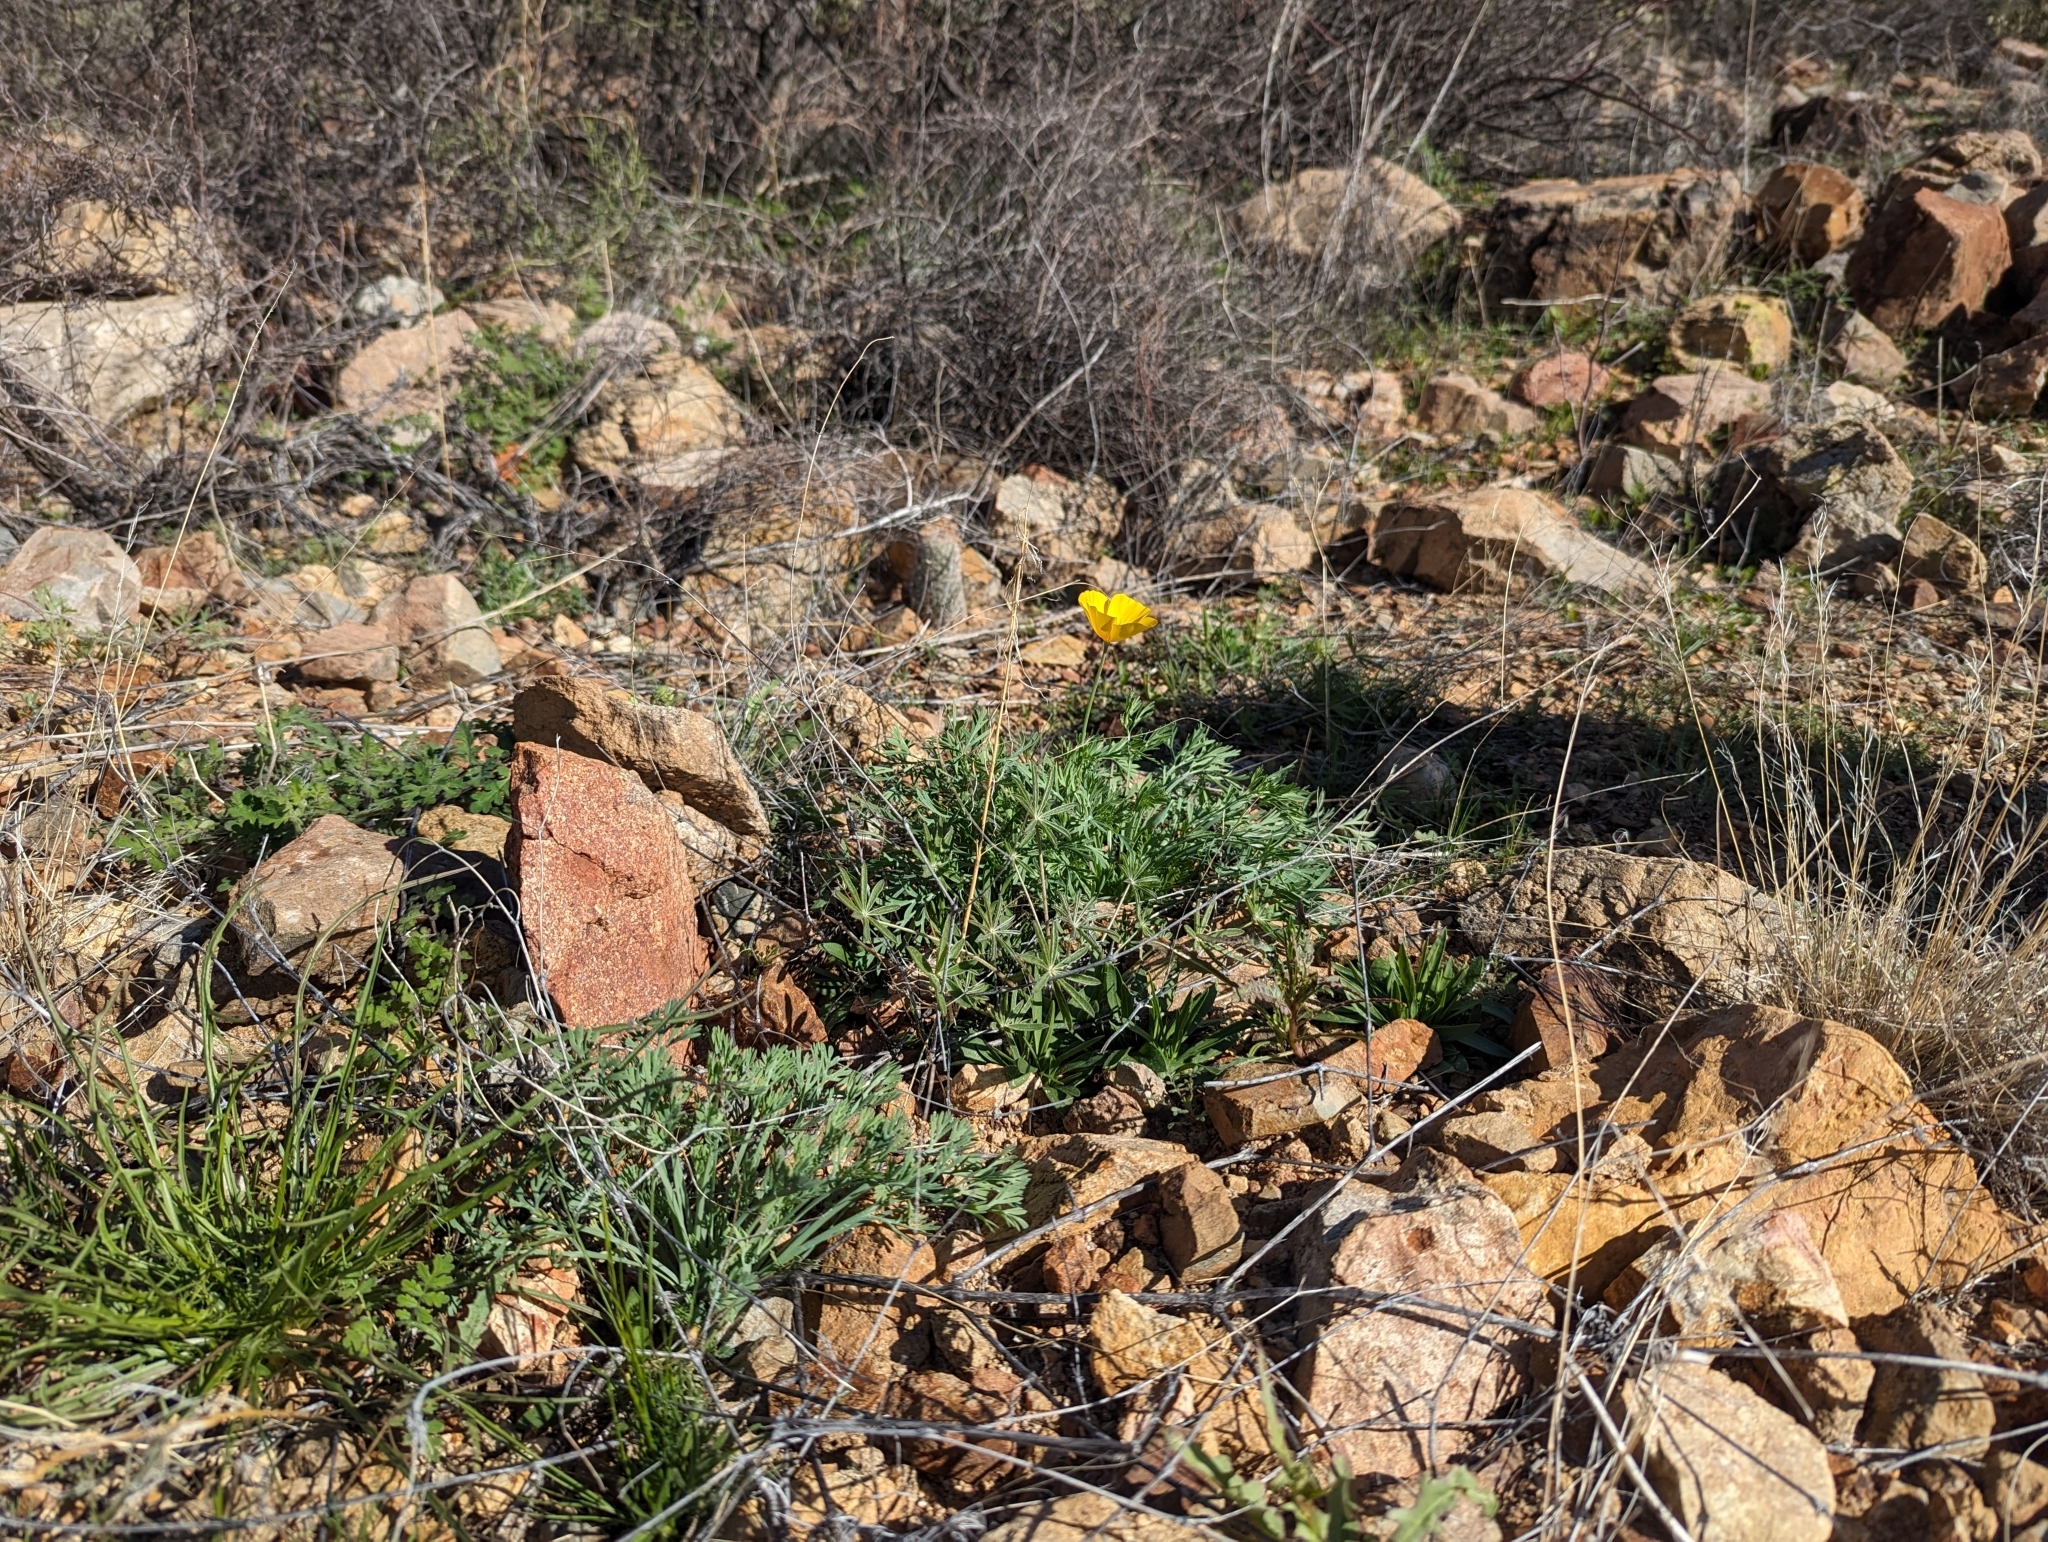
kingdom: Plantae
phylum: Tracheophyta
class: Magnoliopsida
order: Ranunculales
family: Papaveraceae
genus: Eschscholzia
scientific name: Eschscholzia californica
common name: California poppy
